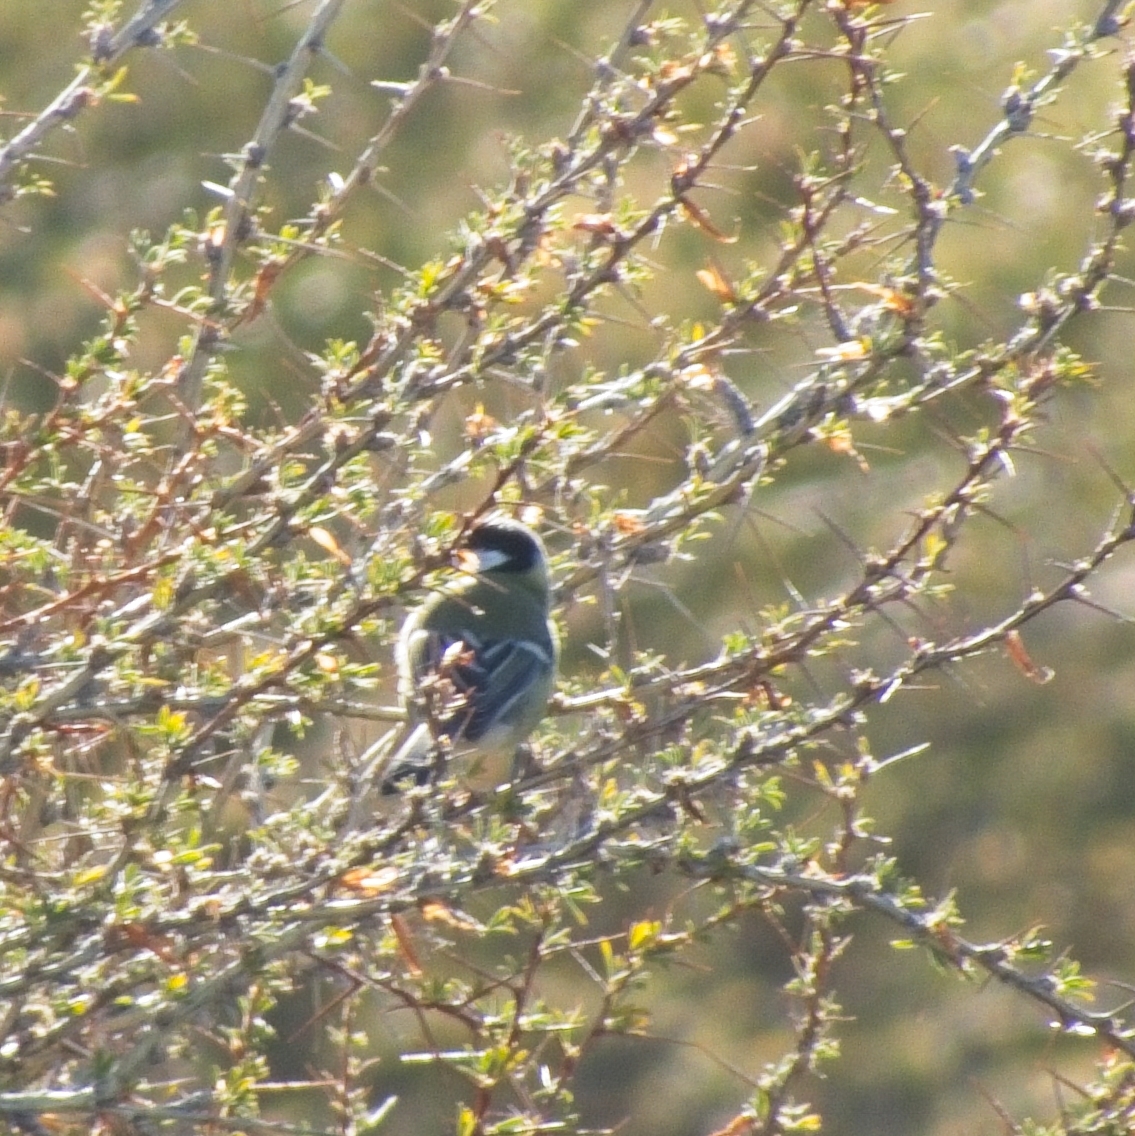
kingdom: Animalia
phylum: Chordata
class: Aves
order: Passeriformes
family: Paridae
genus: Parus
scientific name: Parus major
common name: Great tit
